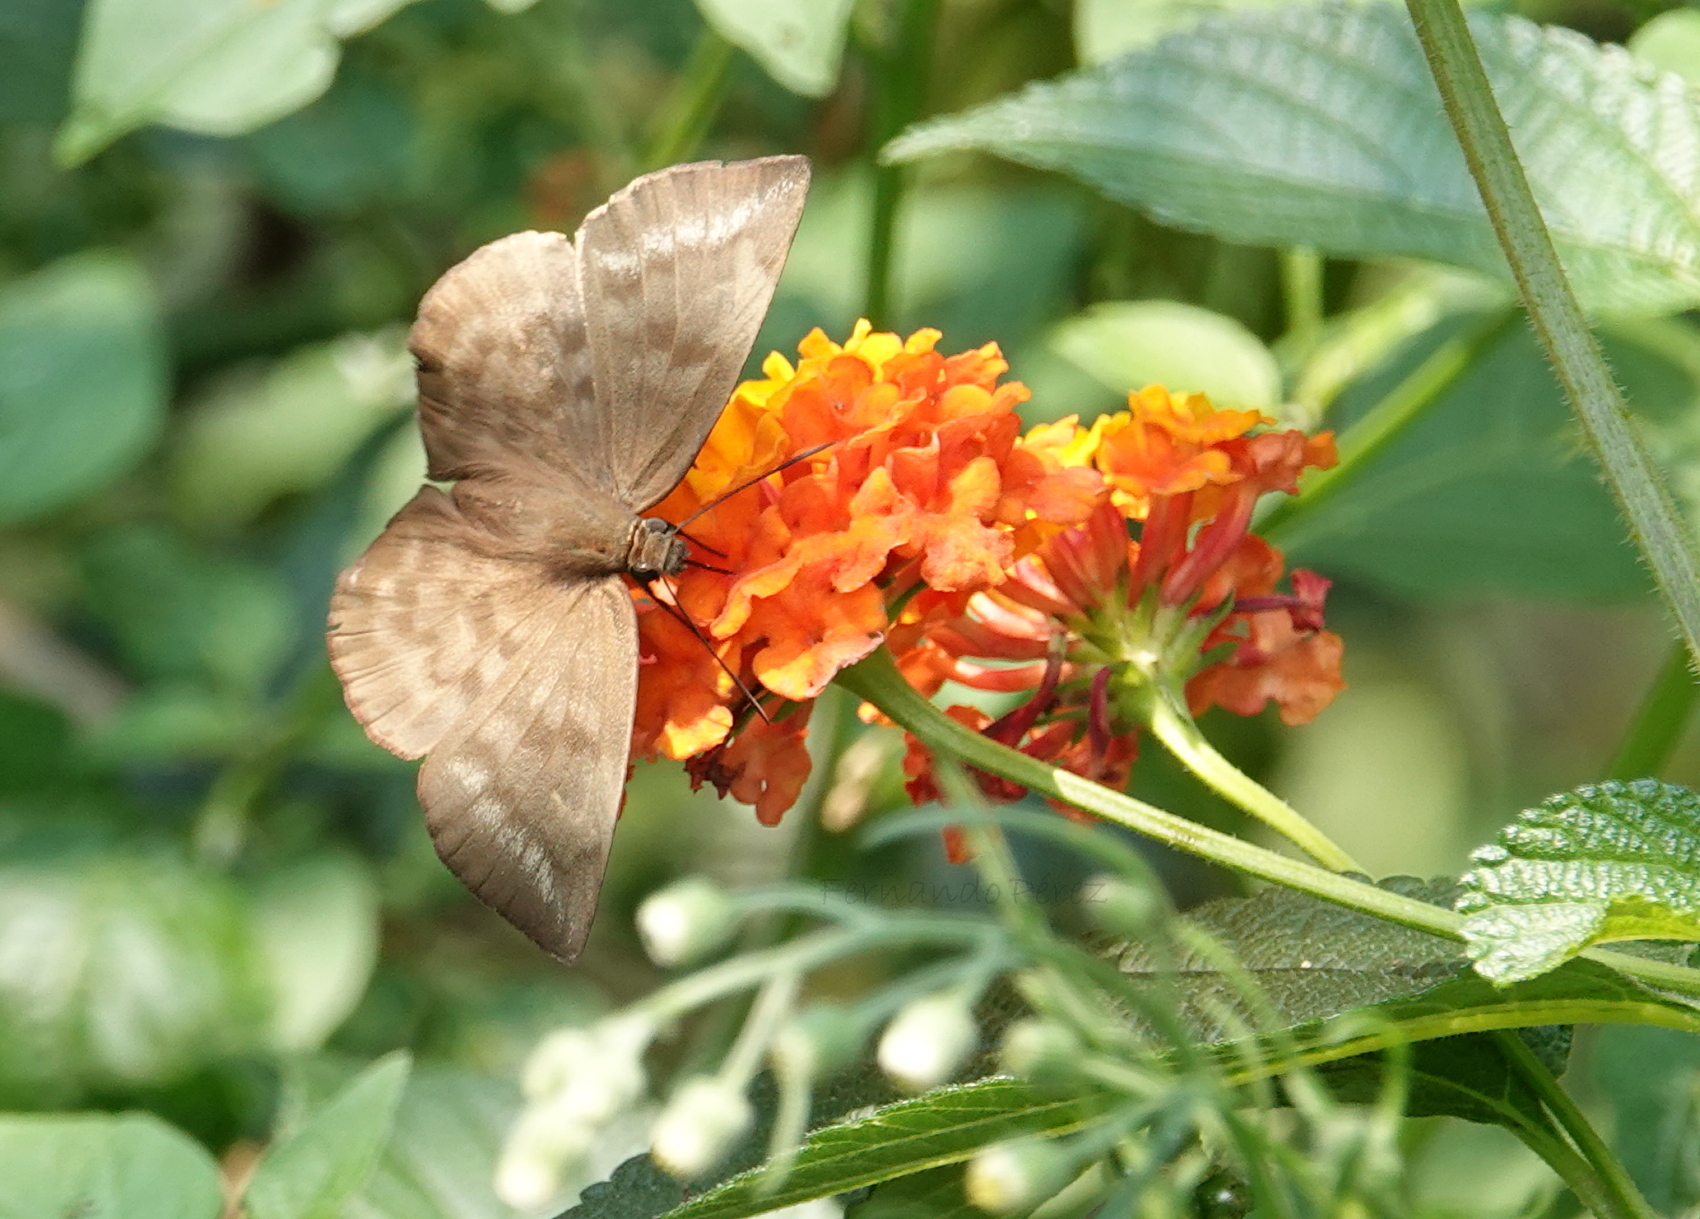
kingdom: Animalia
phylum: Arthropoda
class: Insecta
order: Lepidoptera
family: Hesperiidae
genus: Achlyodes
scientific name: Achlyodes pallida
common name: Pale sicklewing
